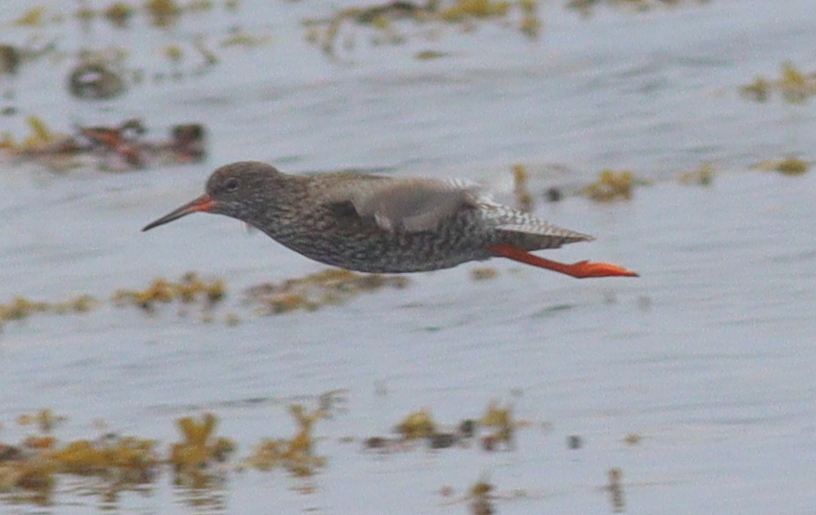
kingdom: Animalia
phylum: Chordata
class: Aves
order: Charadriiformes
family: Scolopacidae
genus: Tringa
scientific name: Tringa totanus
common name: Common redshank
